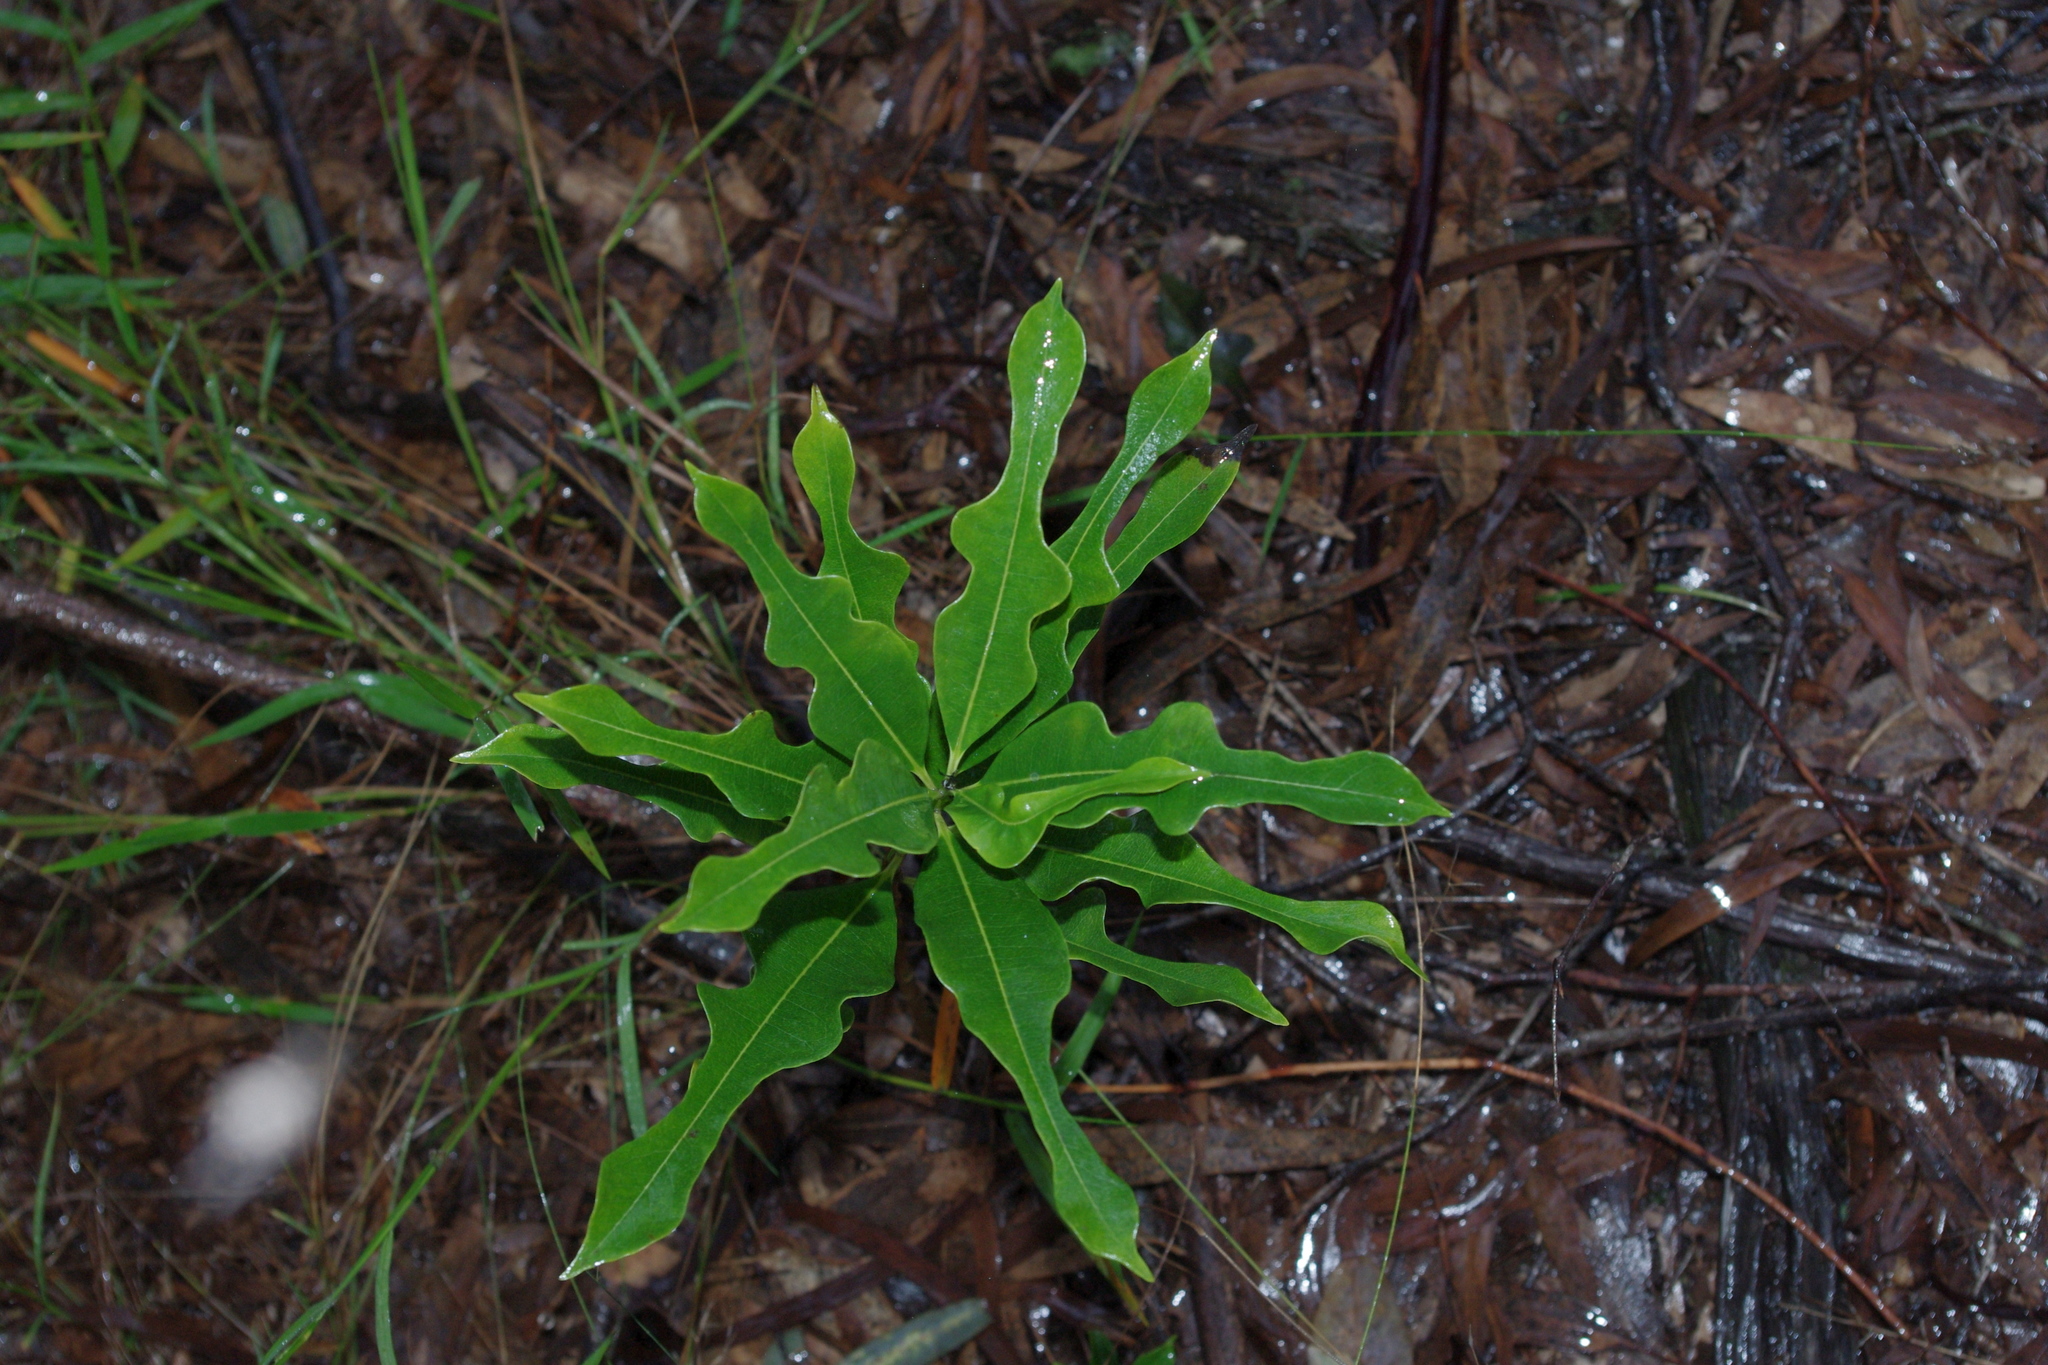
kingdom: Plantae
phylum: Tracheophyta
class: Magnoliopsida
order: Gentianales
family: Apocynaceae
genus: Cerbera
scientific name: Cerbera dumicola
